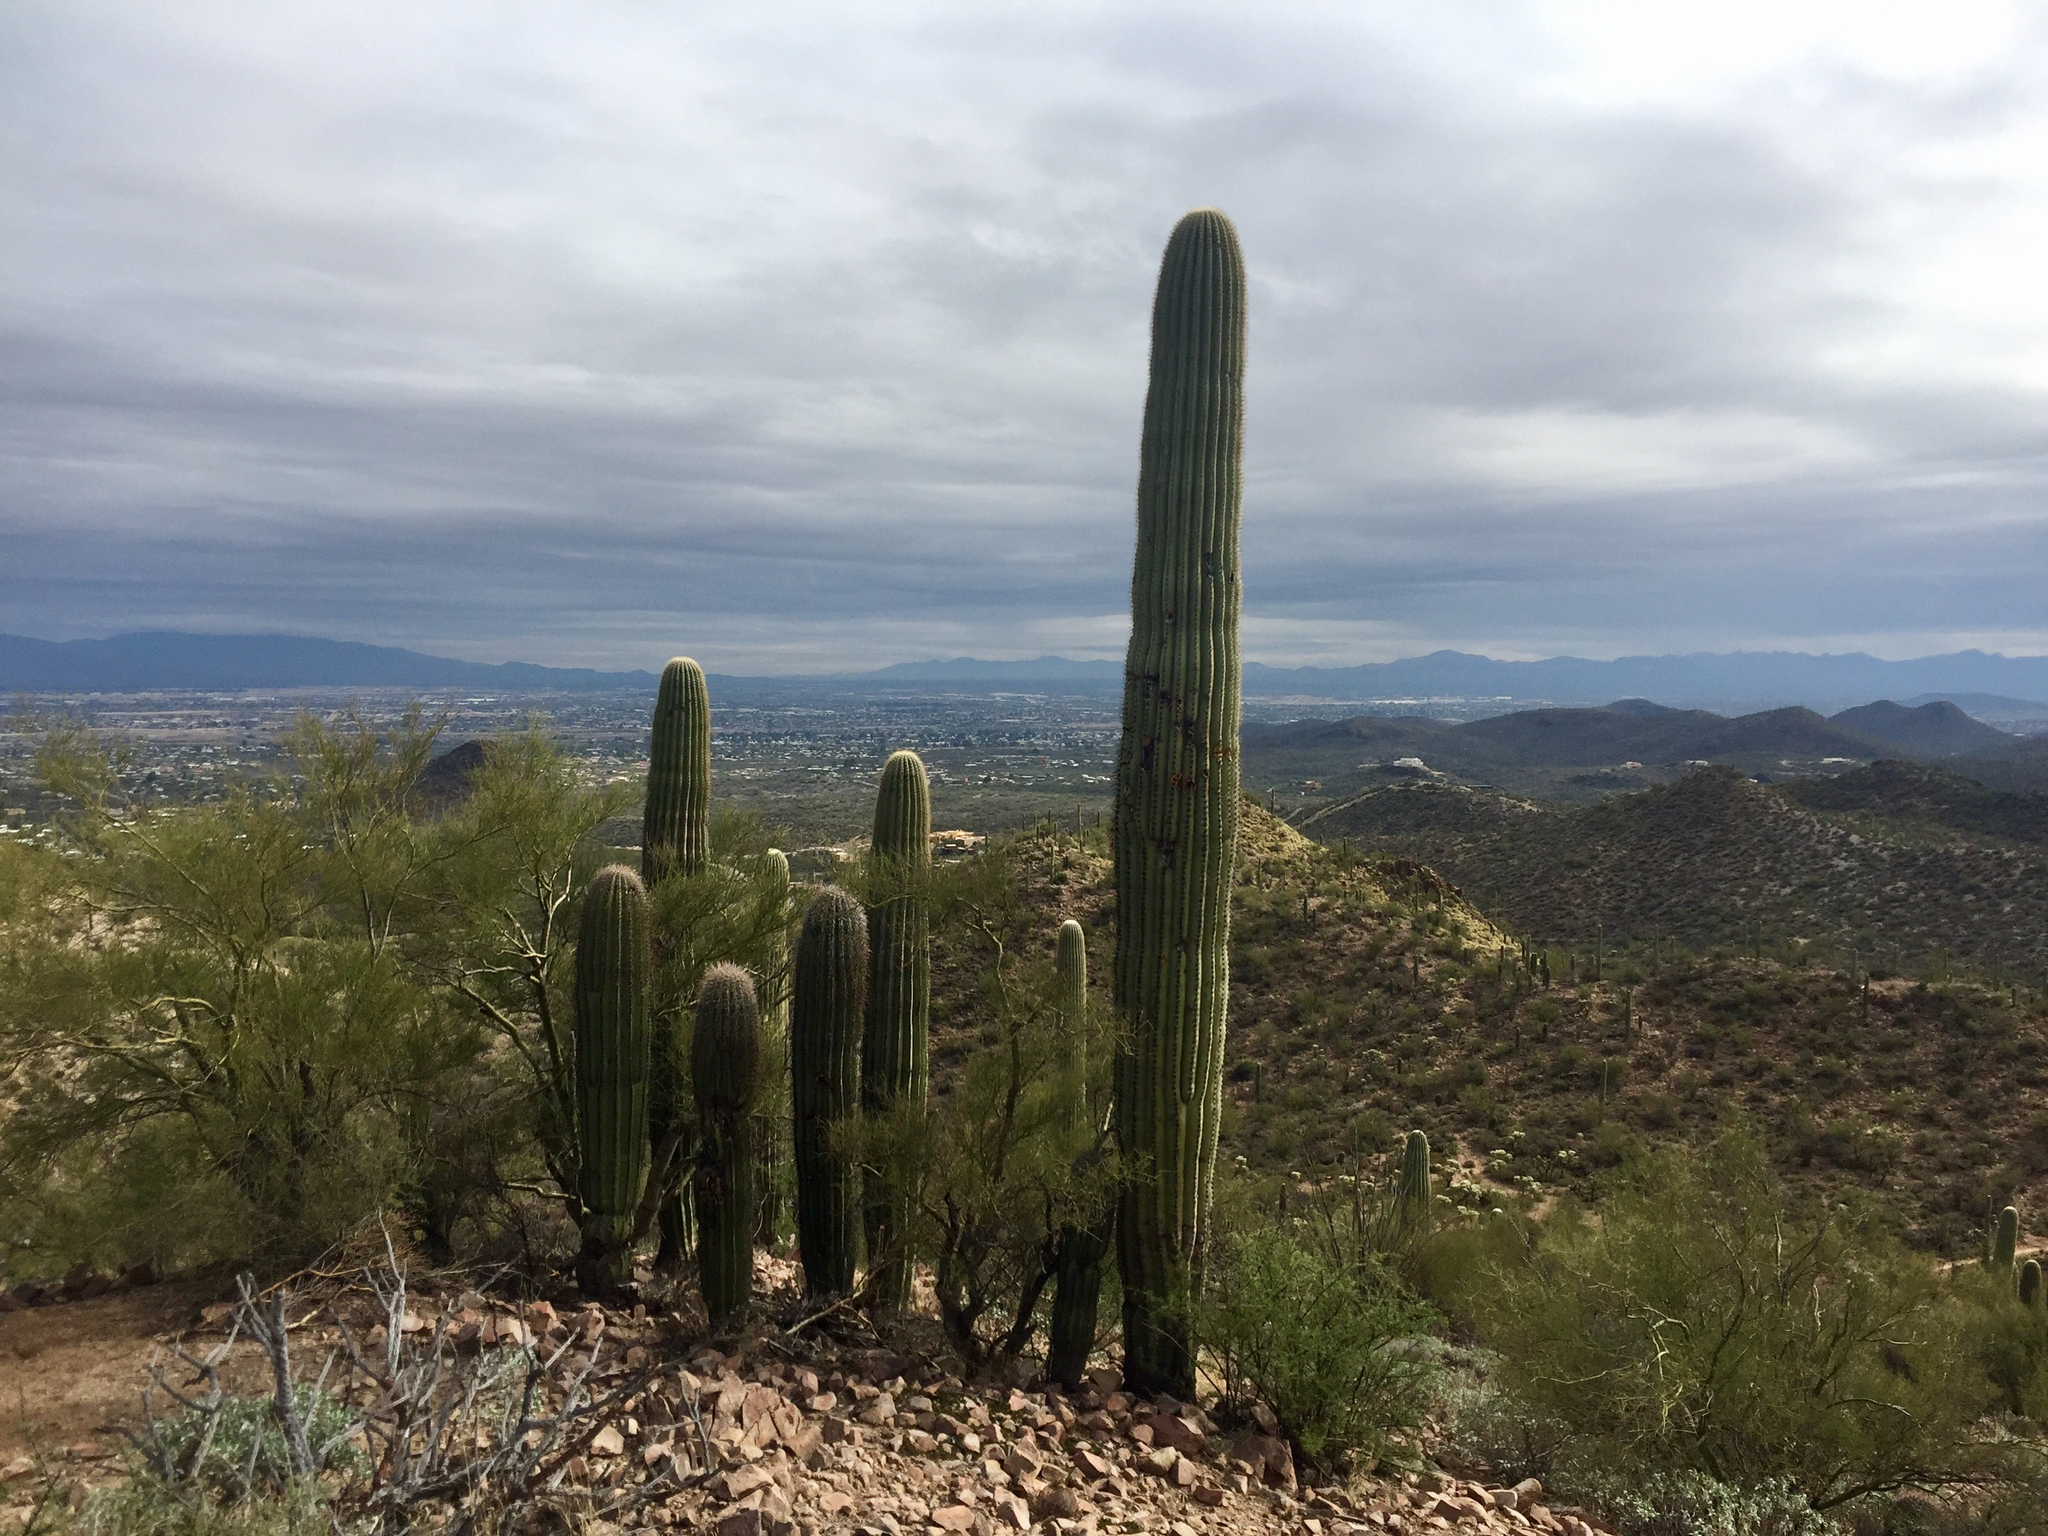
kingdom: Plantae
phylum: Tracheophyta
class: Magnoliopsida
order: Caryophyllales
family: Cactaceae
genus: Carnegiea
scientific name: Carnegiea gigantea
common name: Saguaro
